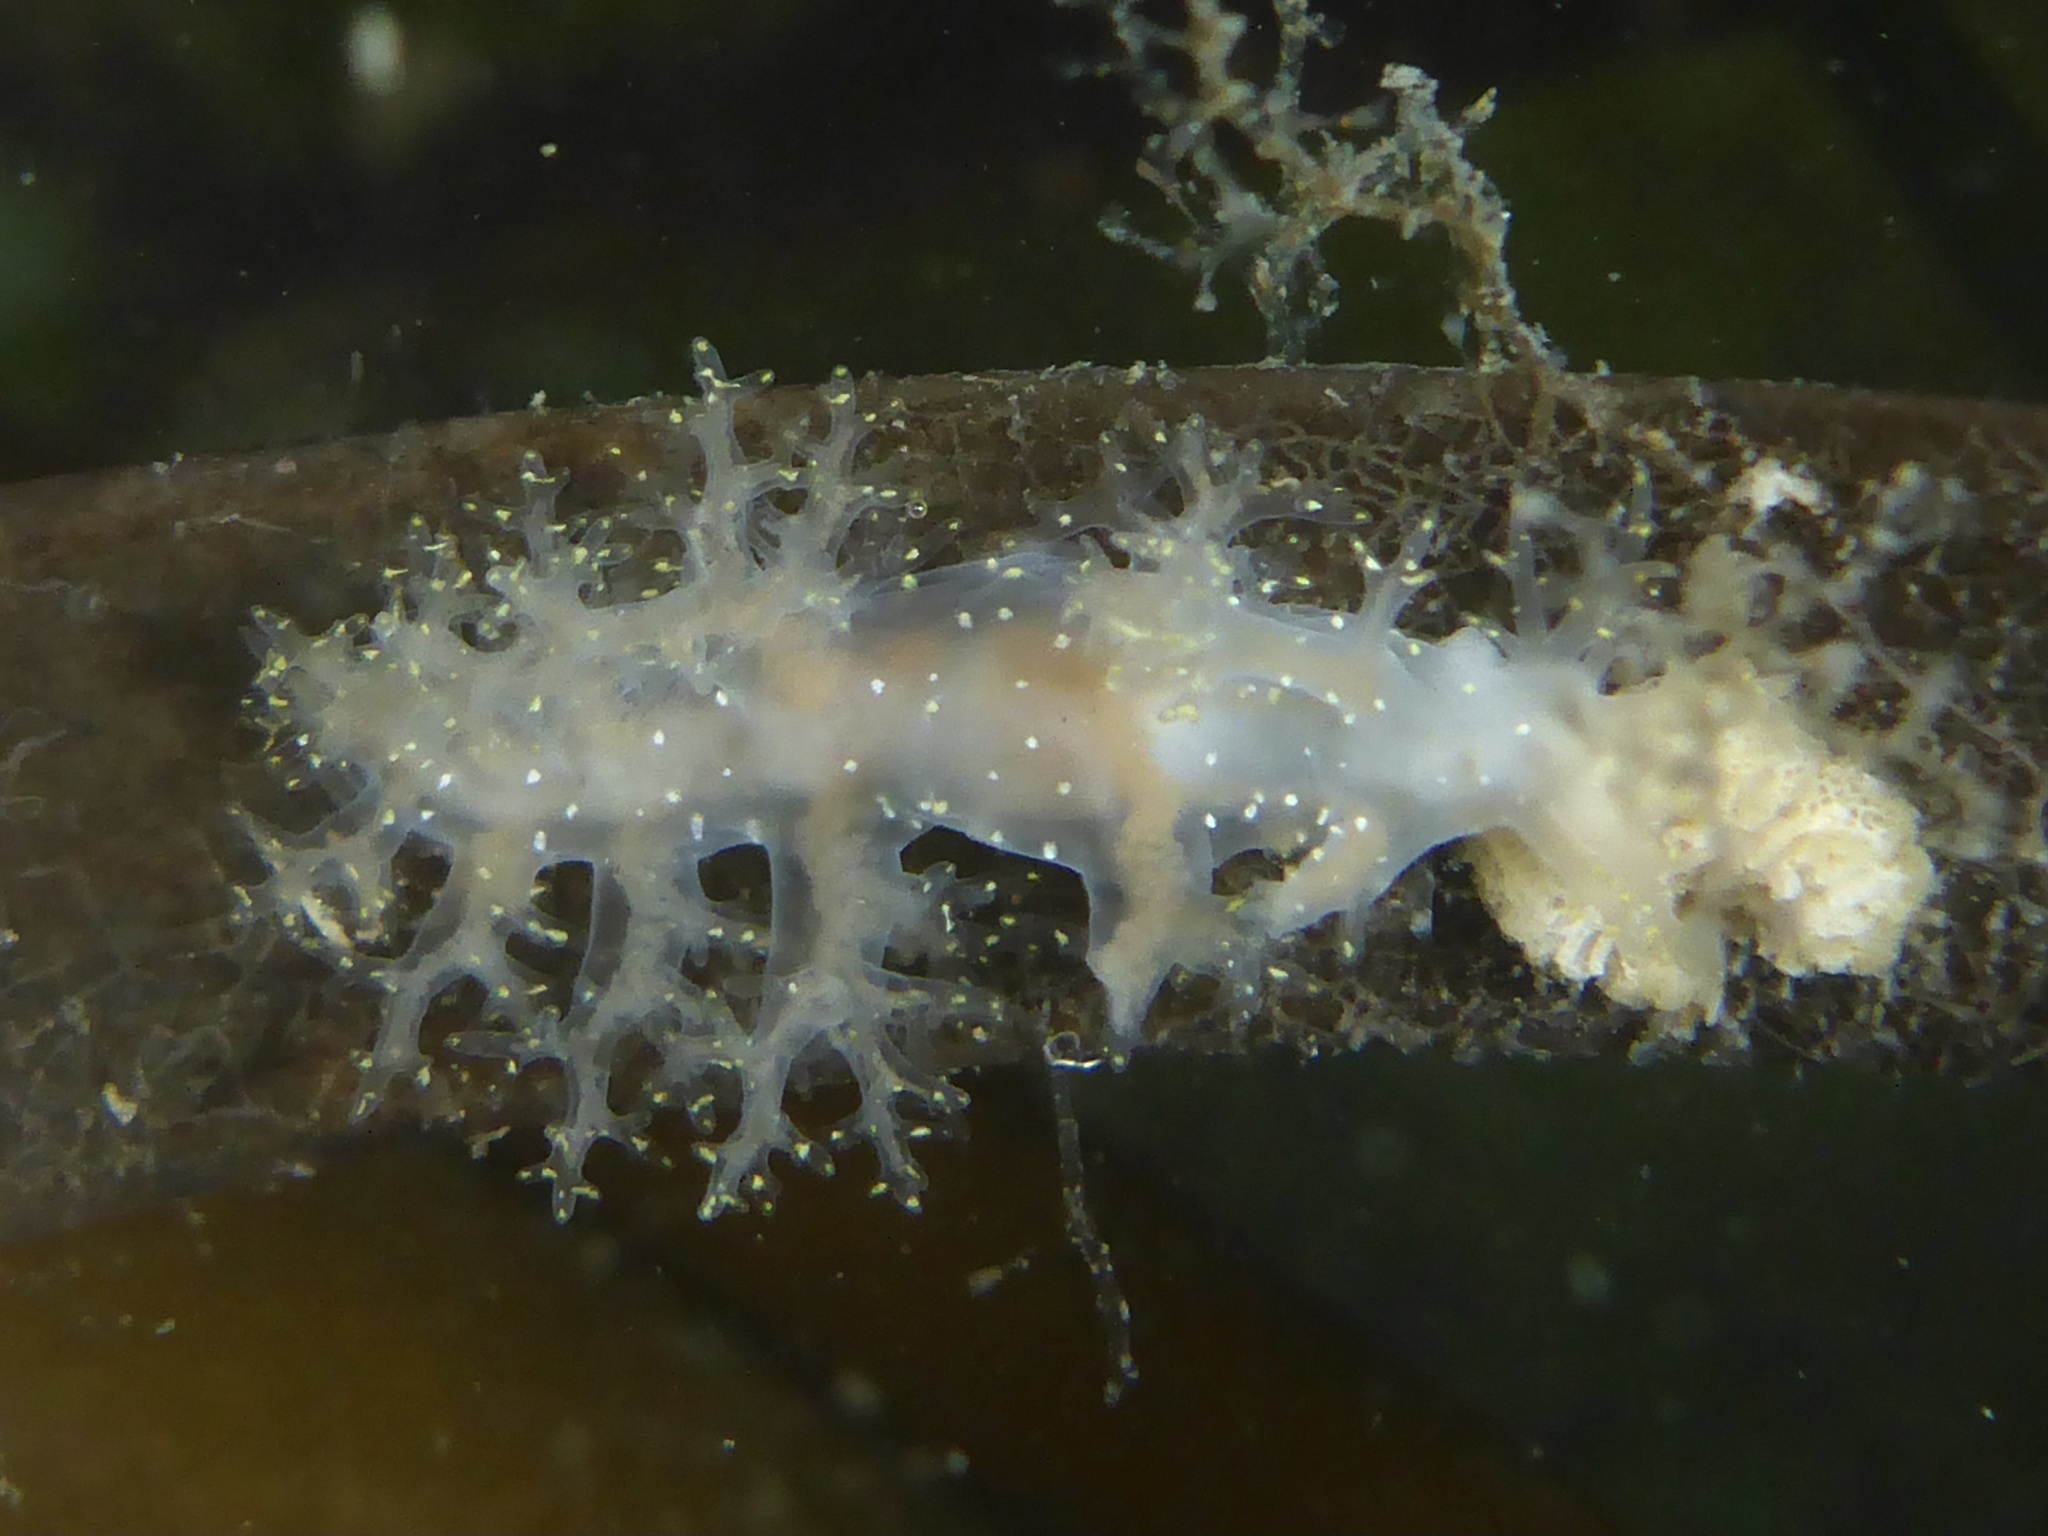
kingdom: Animalia
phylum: Mollusca
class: Gastropoda
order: Nudibranchia
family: Dendronotidae
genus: Dendronotus
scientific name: Dendronotus venustus
